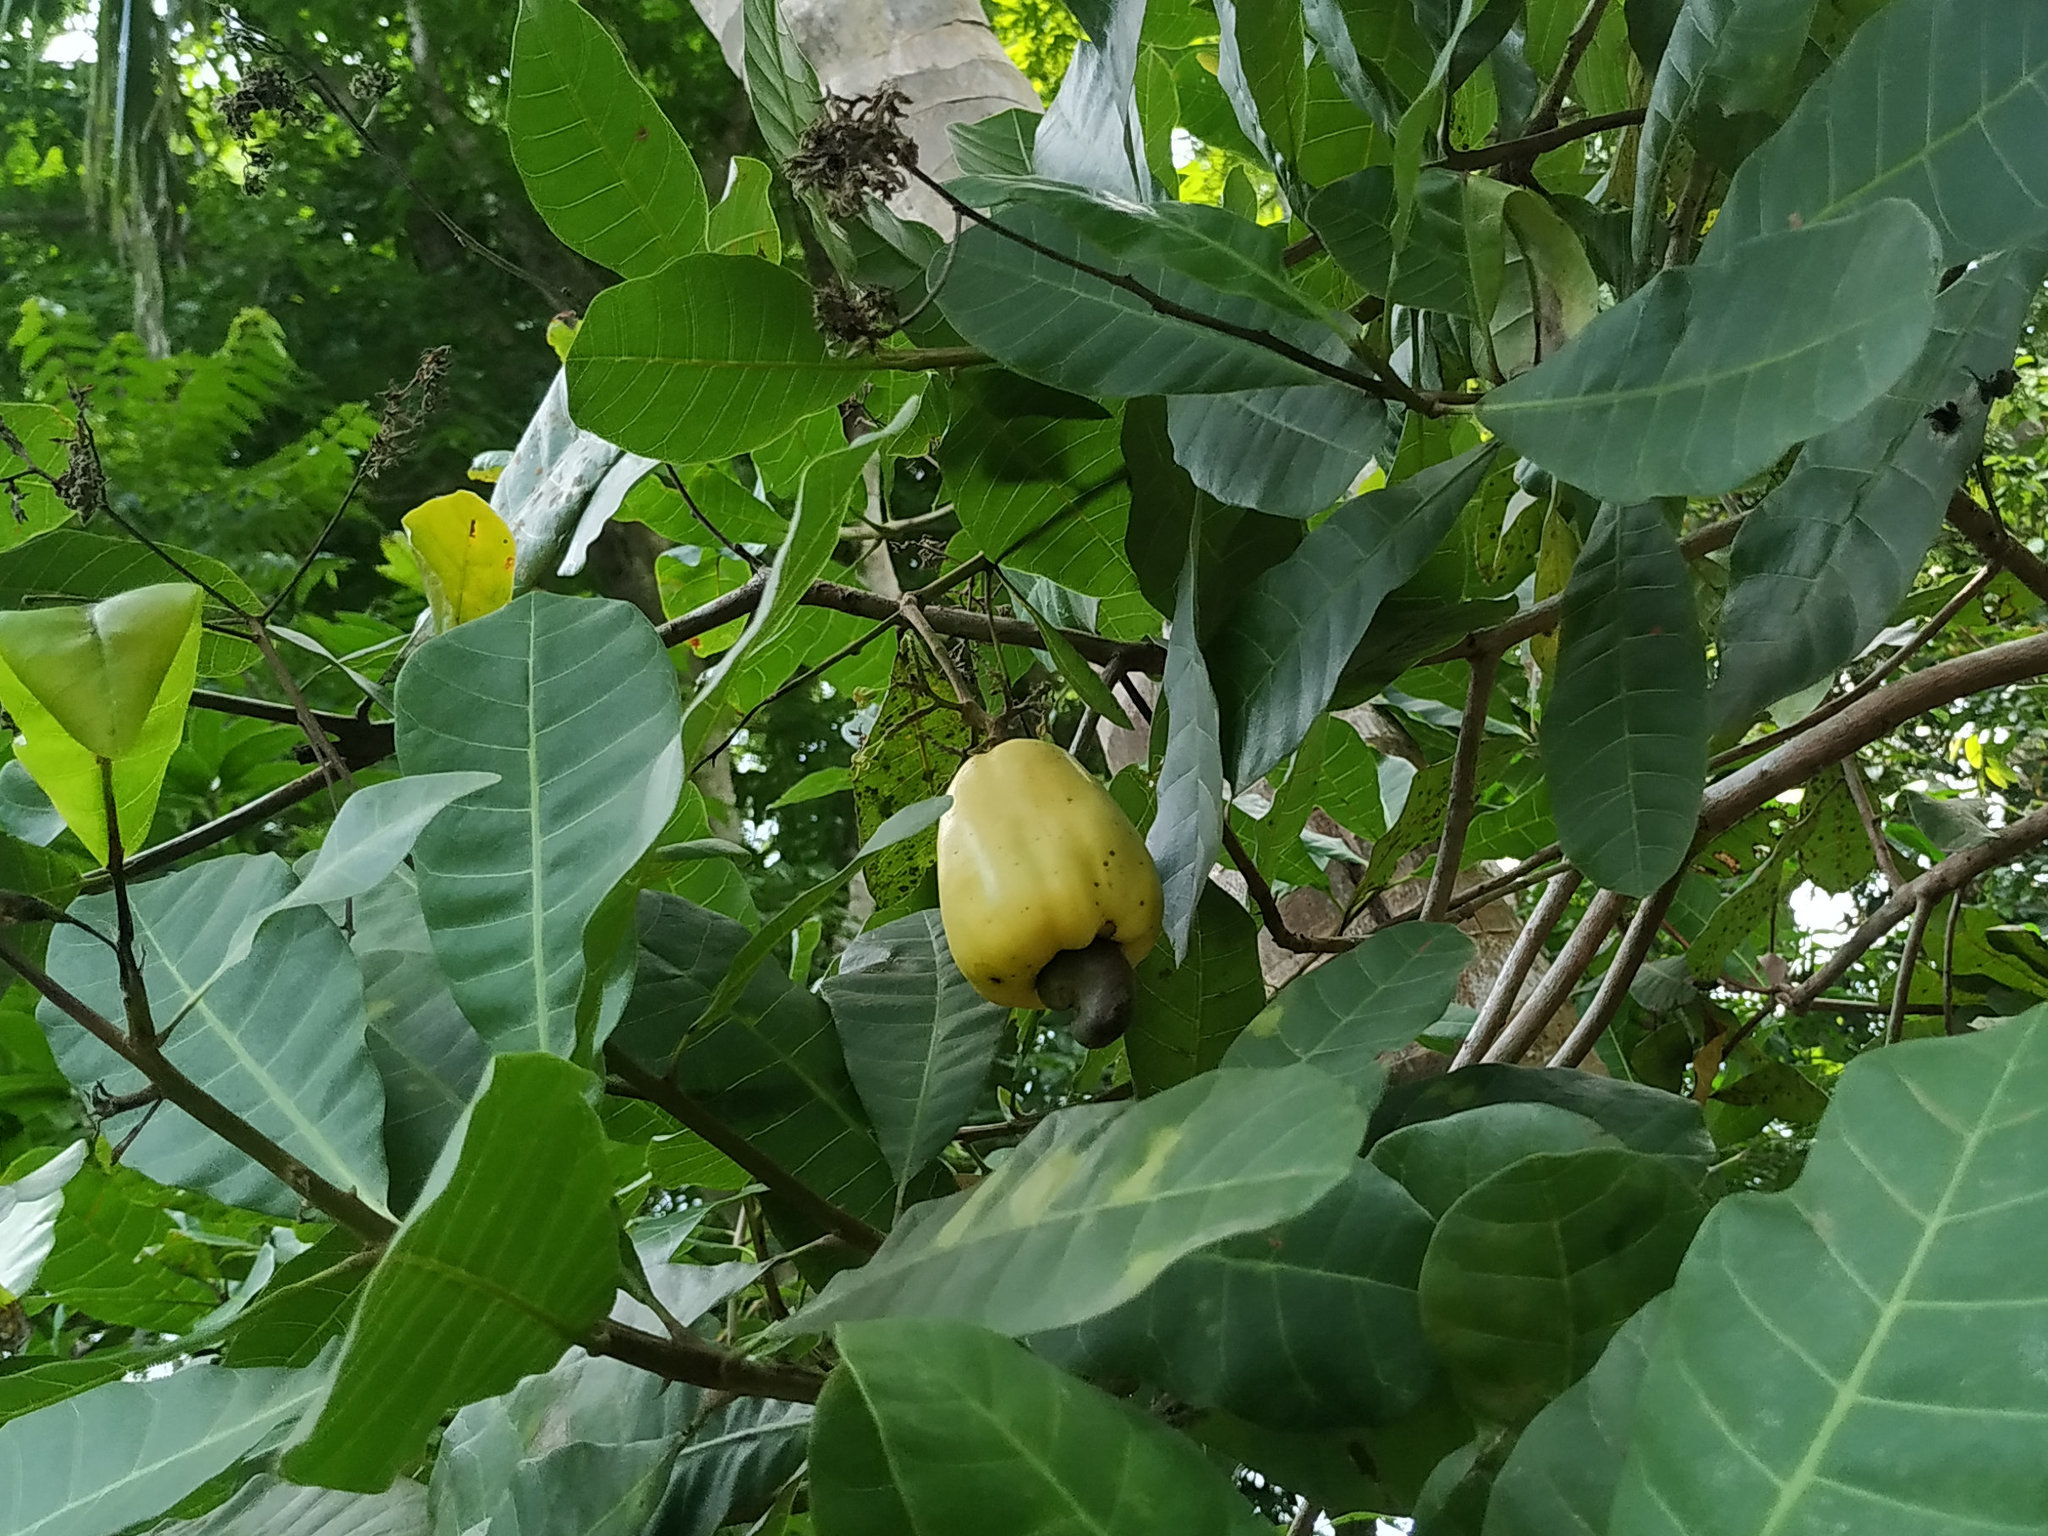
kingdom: Plantae
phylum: Tracheophyta
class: Magnoliopsida
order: Sapindales
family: Anacardiaceae
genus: Anacardium
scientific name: Anacardium occidentale
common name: Cashew
